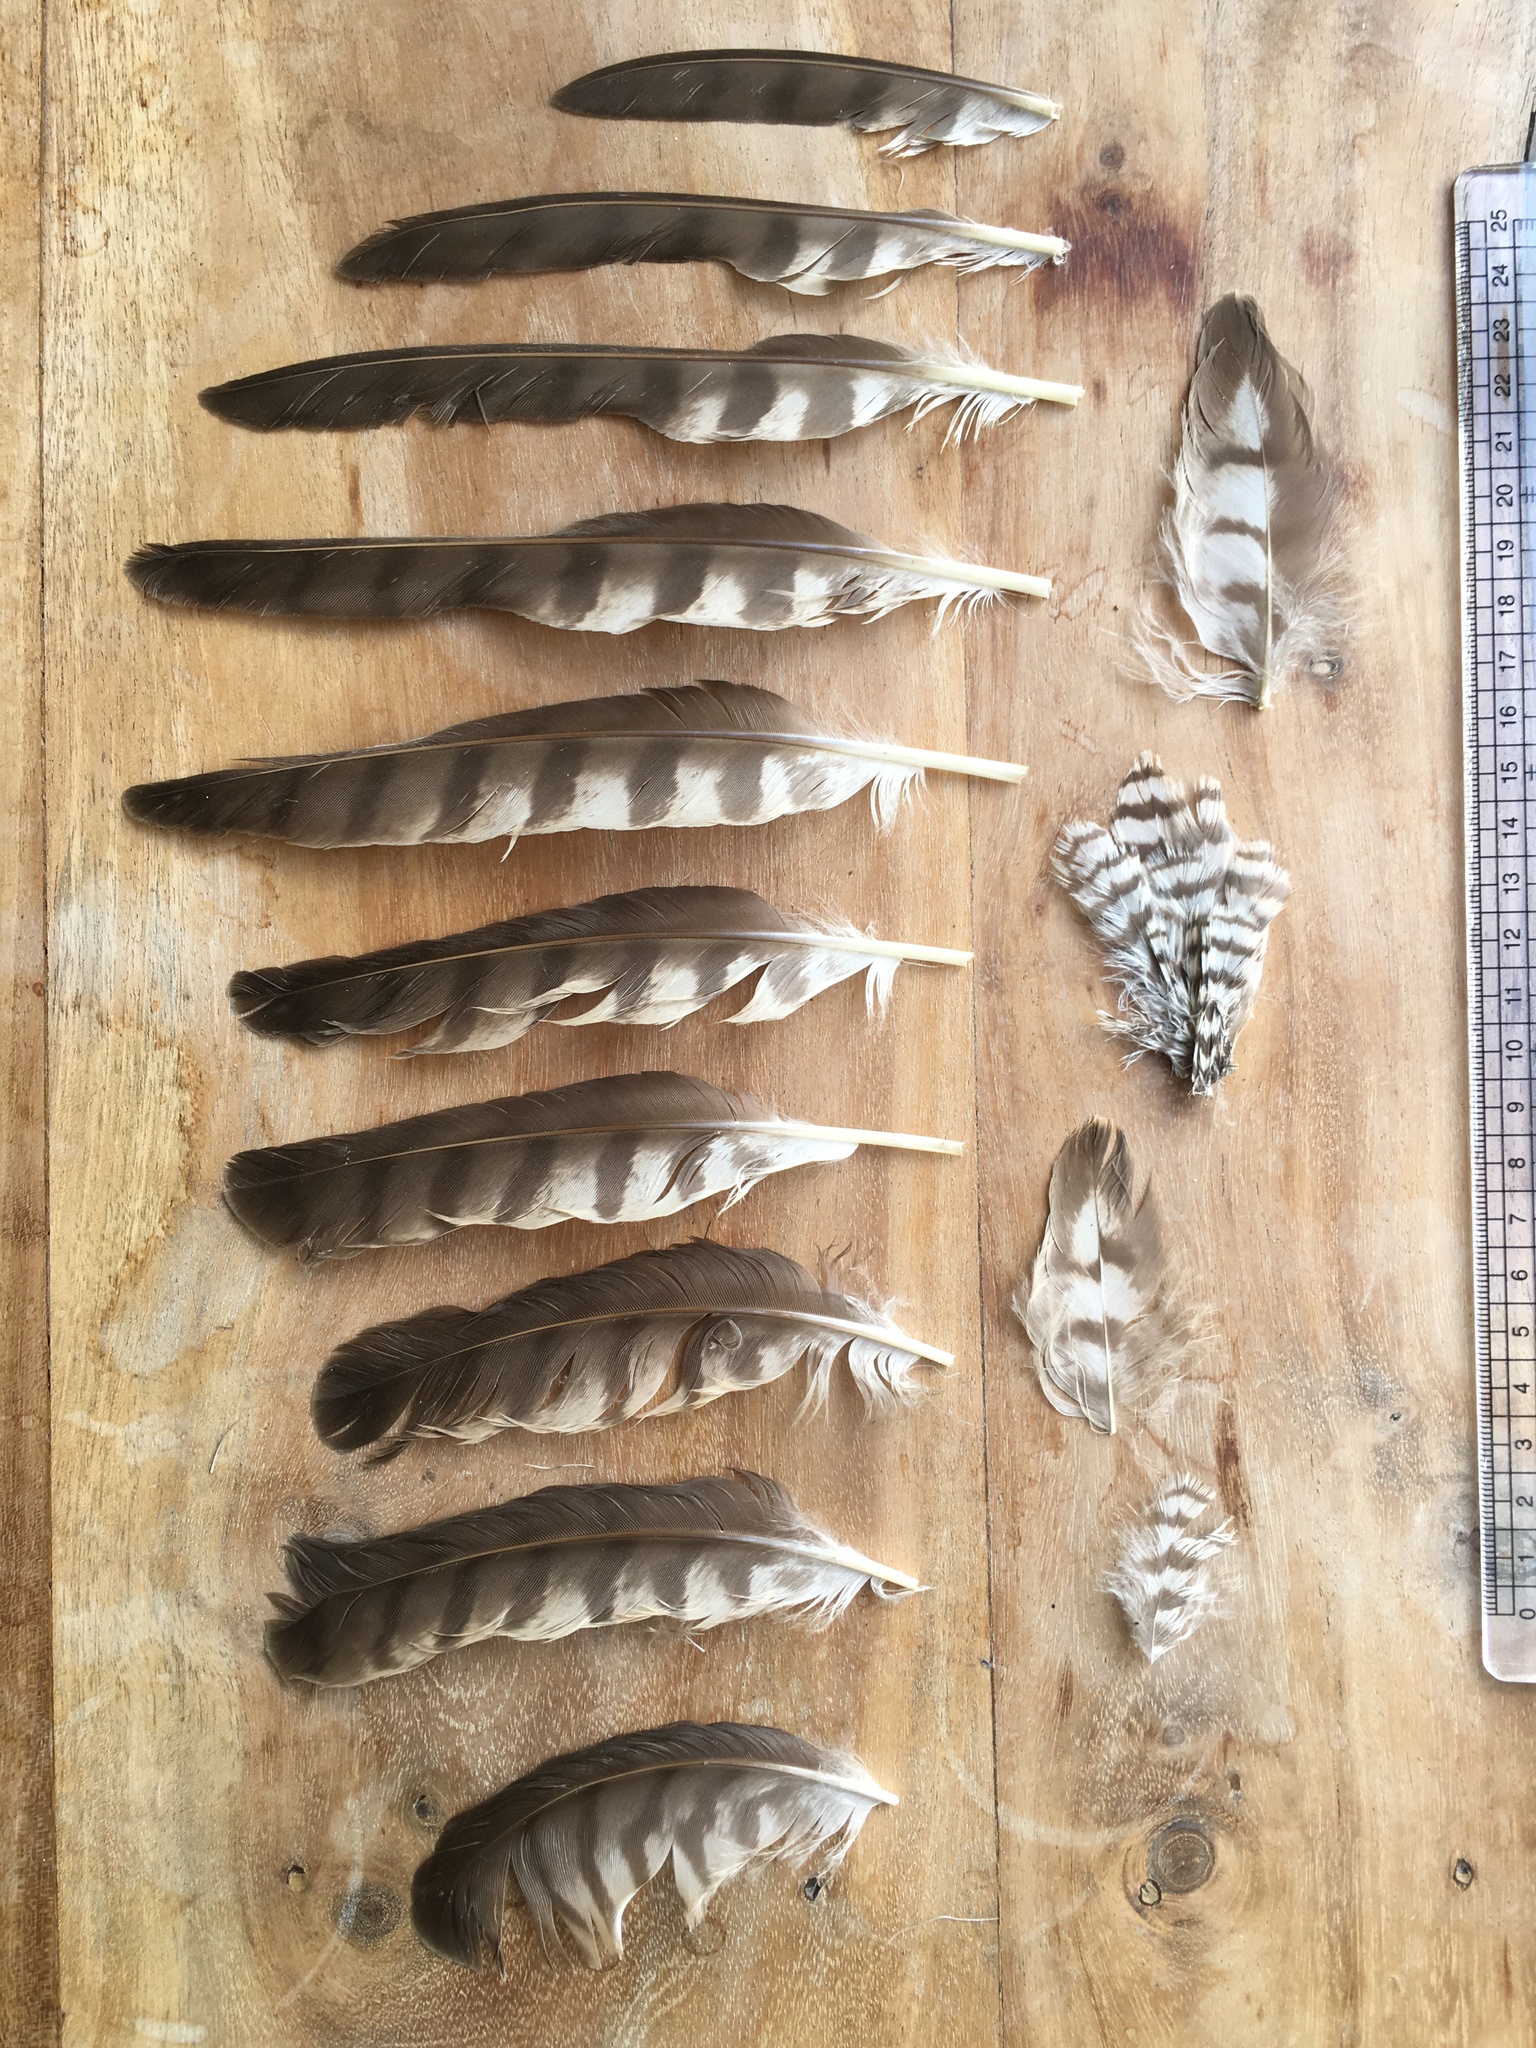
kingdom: Animalia
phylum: Chordata
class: Aves
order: Accipitriformes
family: Accipitridae
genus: Accipiter
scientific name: Accipiter nisus
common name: Eurasian sparrowhawk
